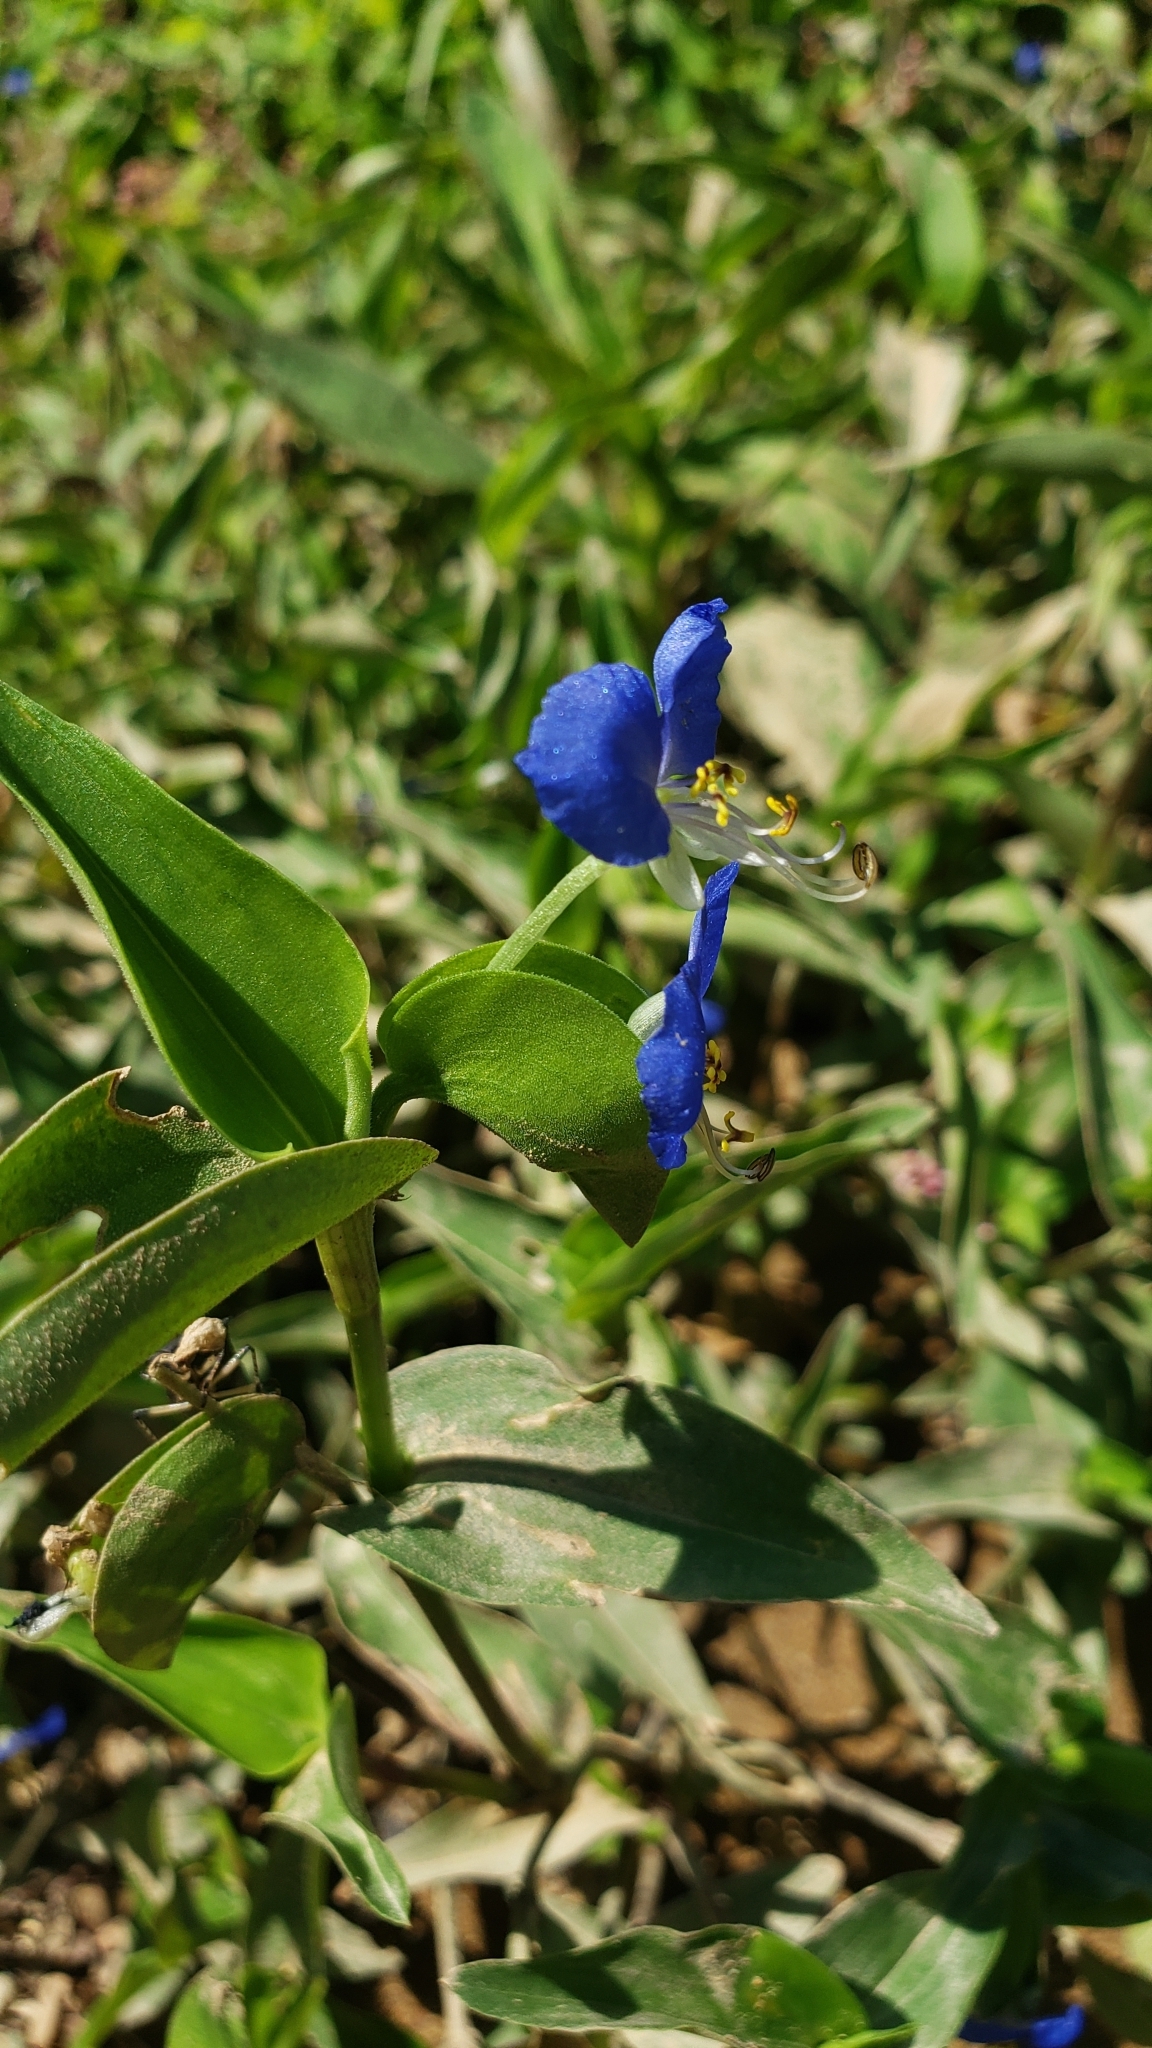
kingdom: Plantae
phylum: Tracheophyta
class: Liliopsida
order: Commelinales
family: Commelinaceae
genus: Commelina
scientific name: Commelina communis
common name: Asiatic dayflower
